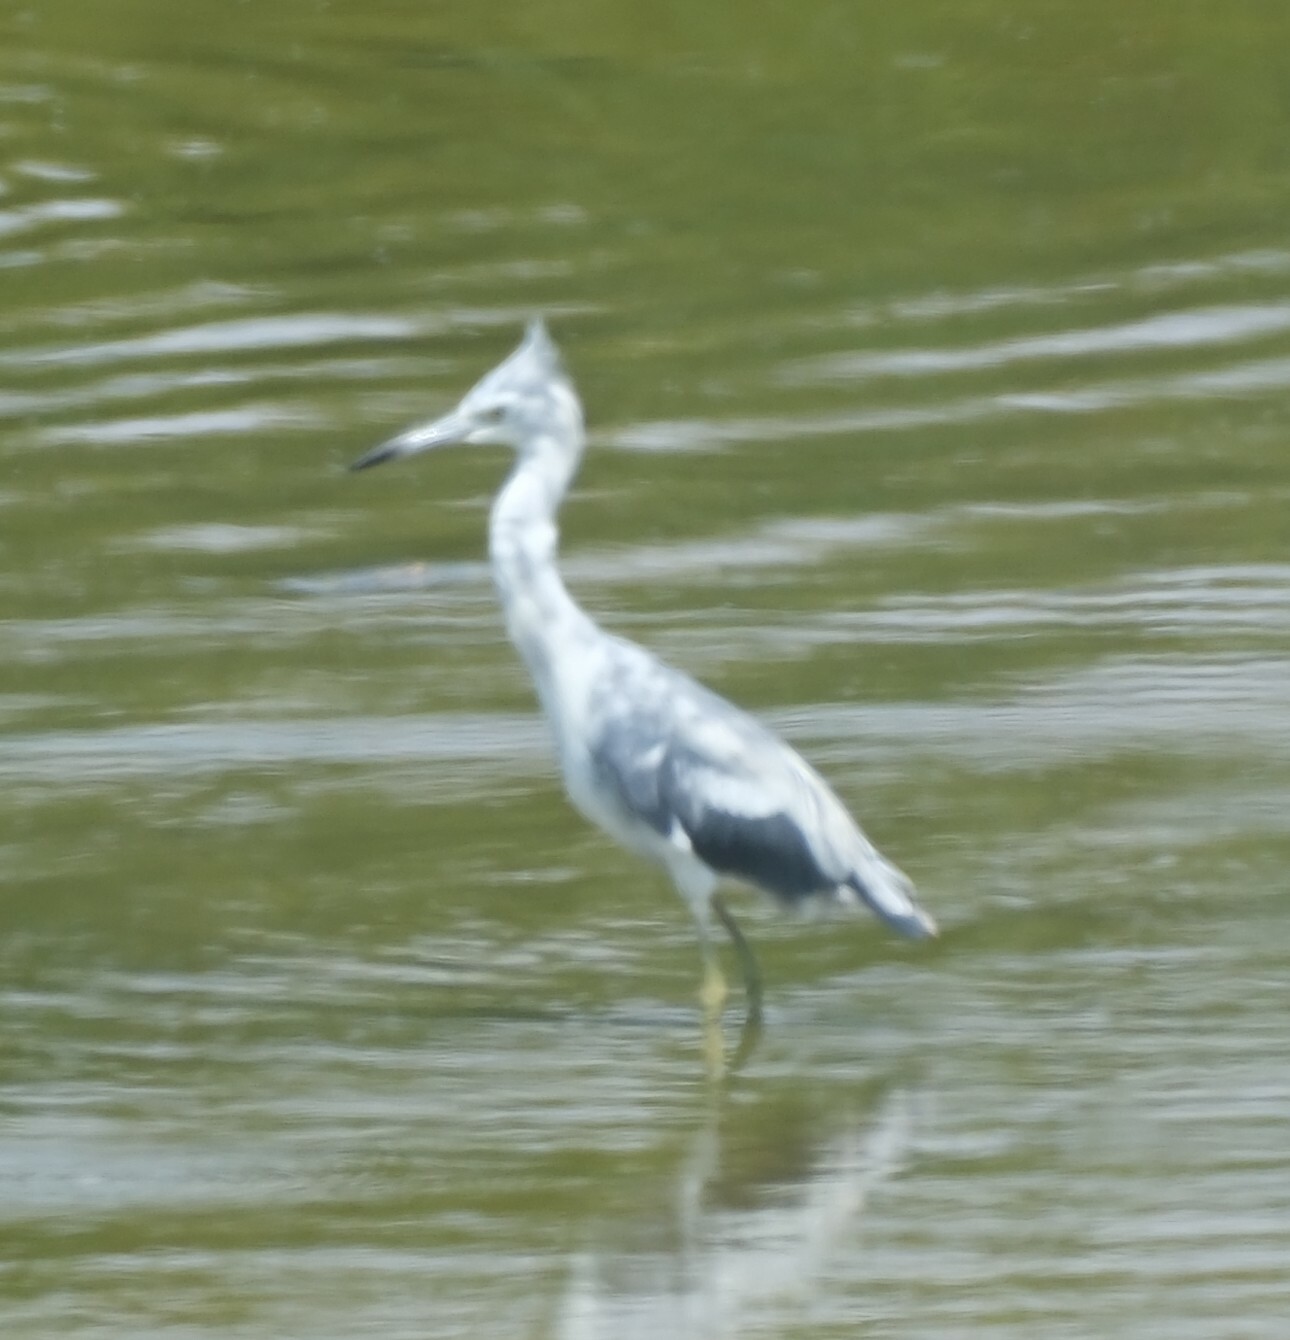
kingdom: Animalia
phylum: Chordata
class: Aves
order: Pelecaniformes
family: Ardeidae
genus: Egretta
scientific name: Egretta caerulea
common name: Little blue heron
